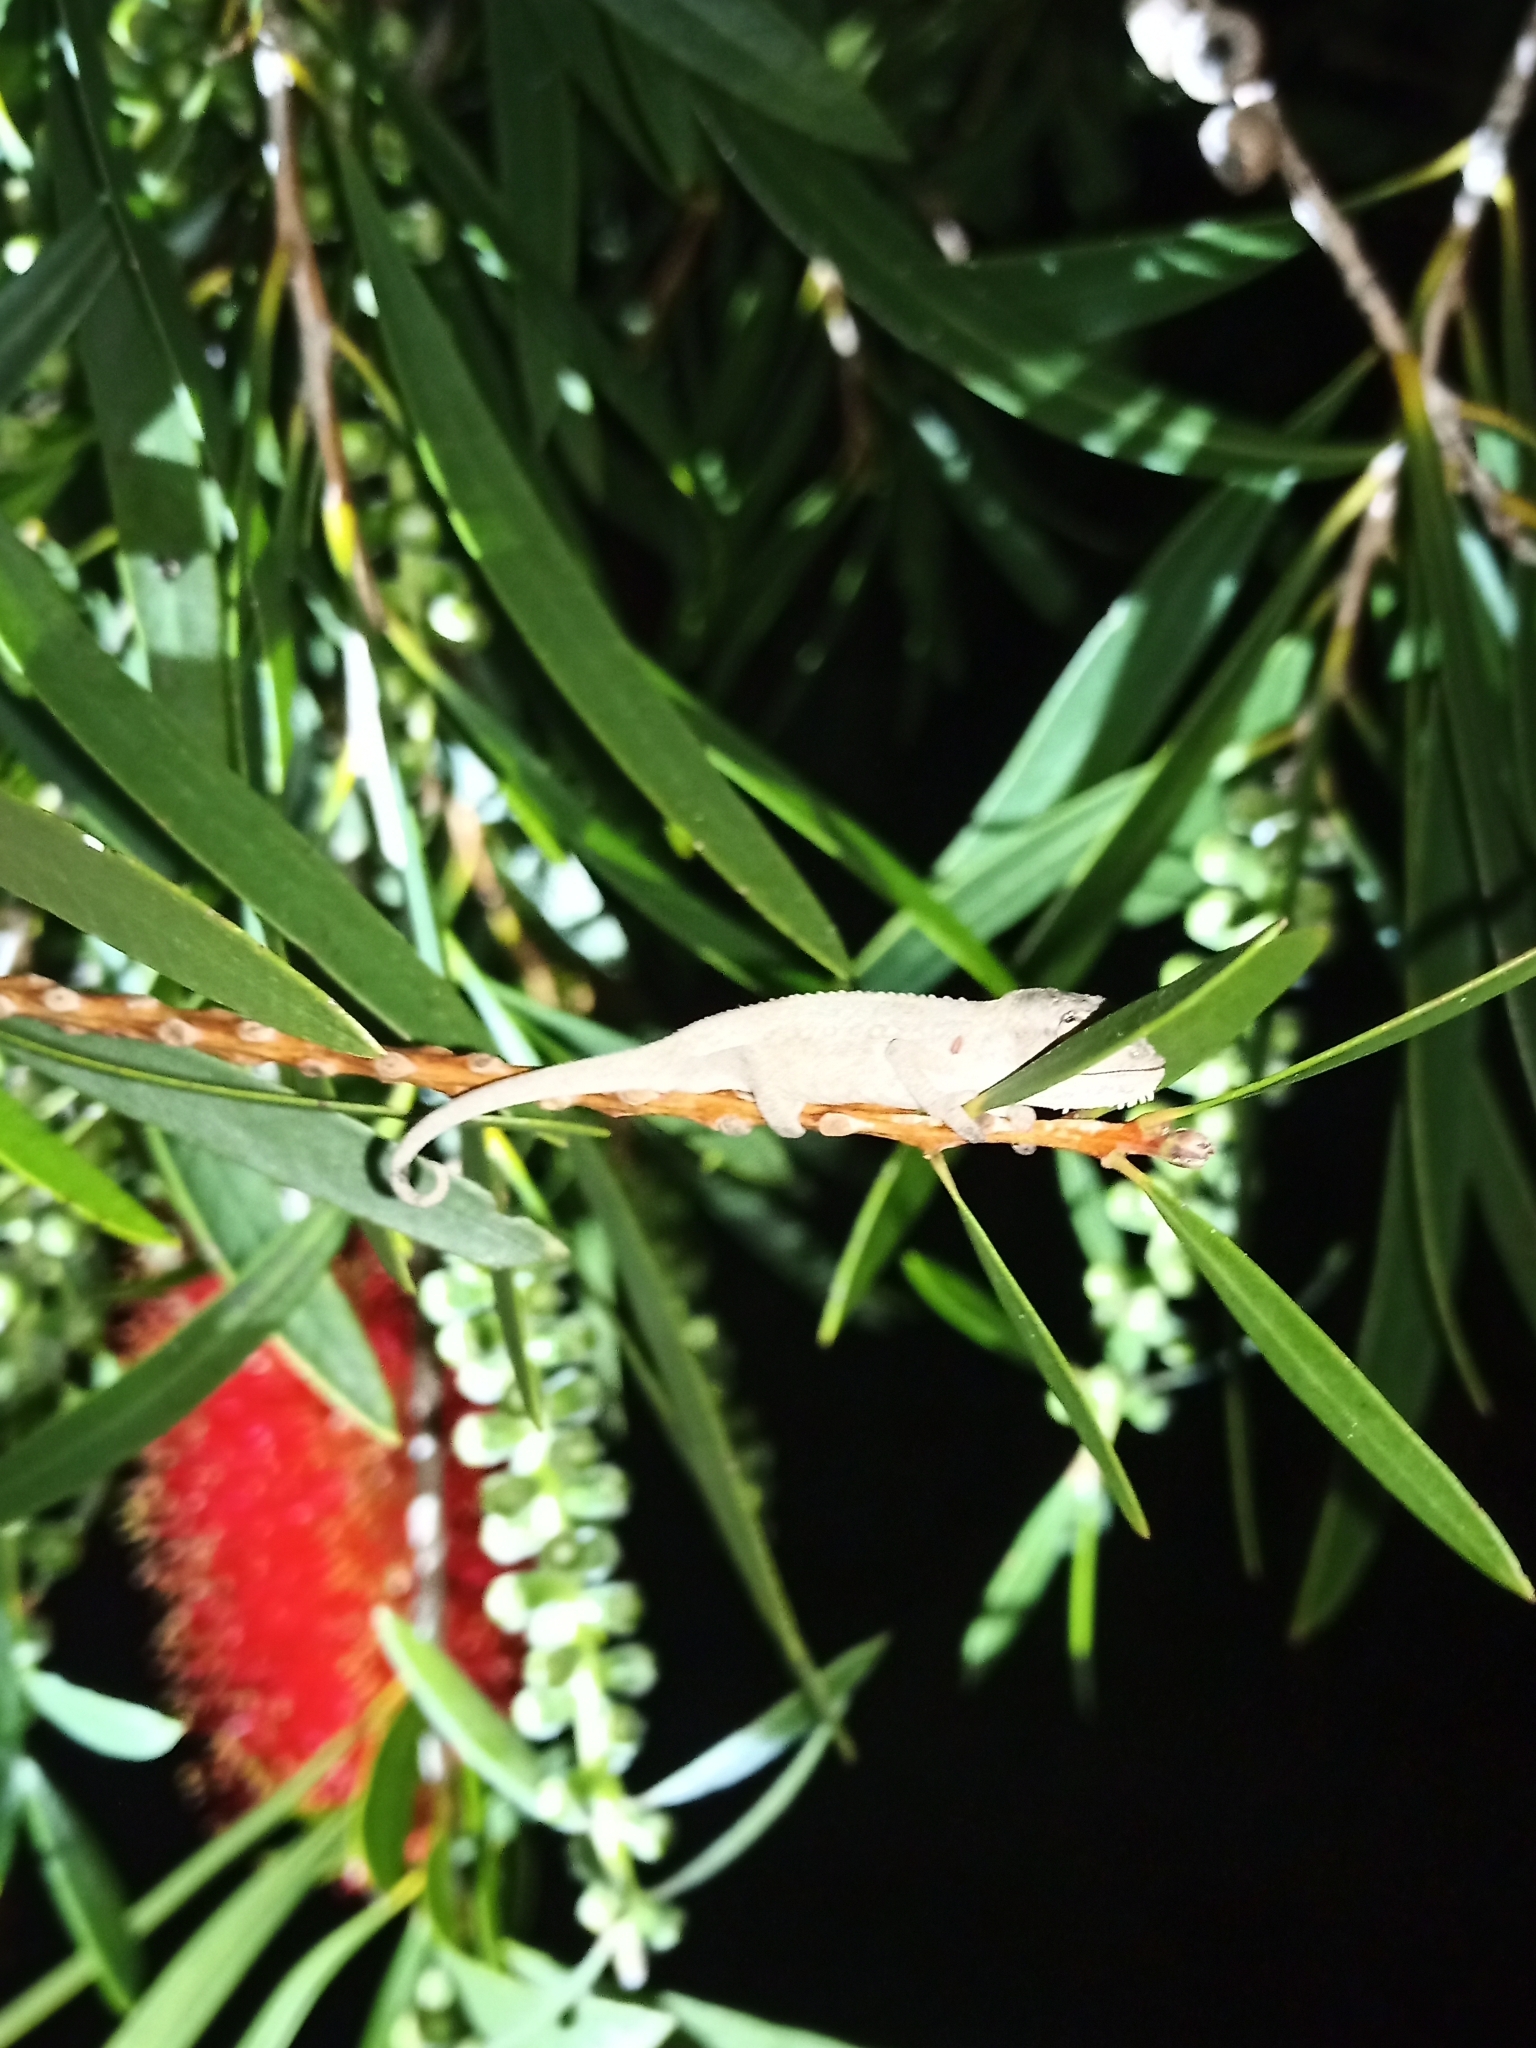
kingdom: Animalia
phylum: Chordata
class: Squamata
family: Chamaeleonidae
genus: Bradypodion
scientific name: Bradypodion pumilum
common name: Cape dwarf chameleon
